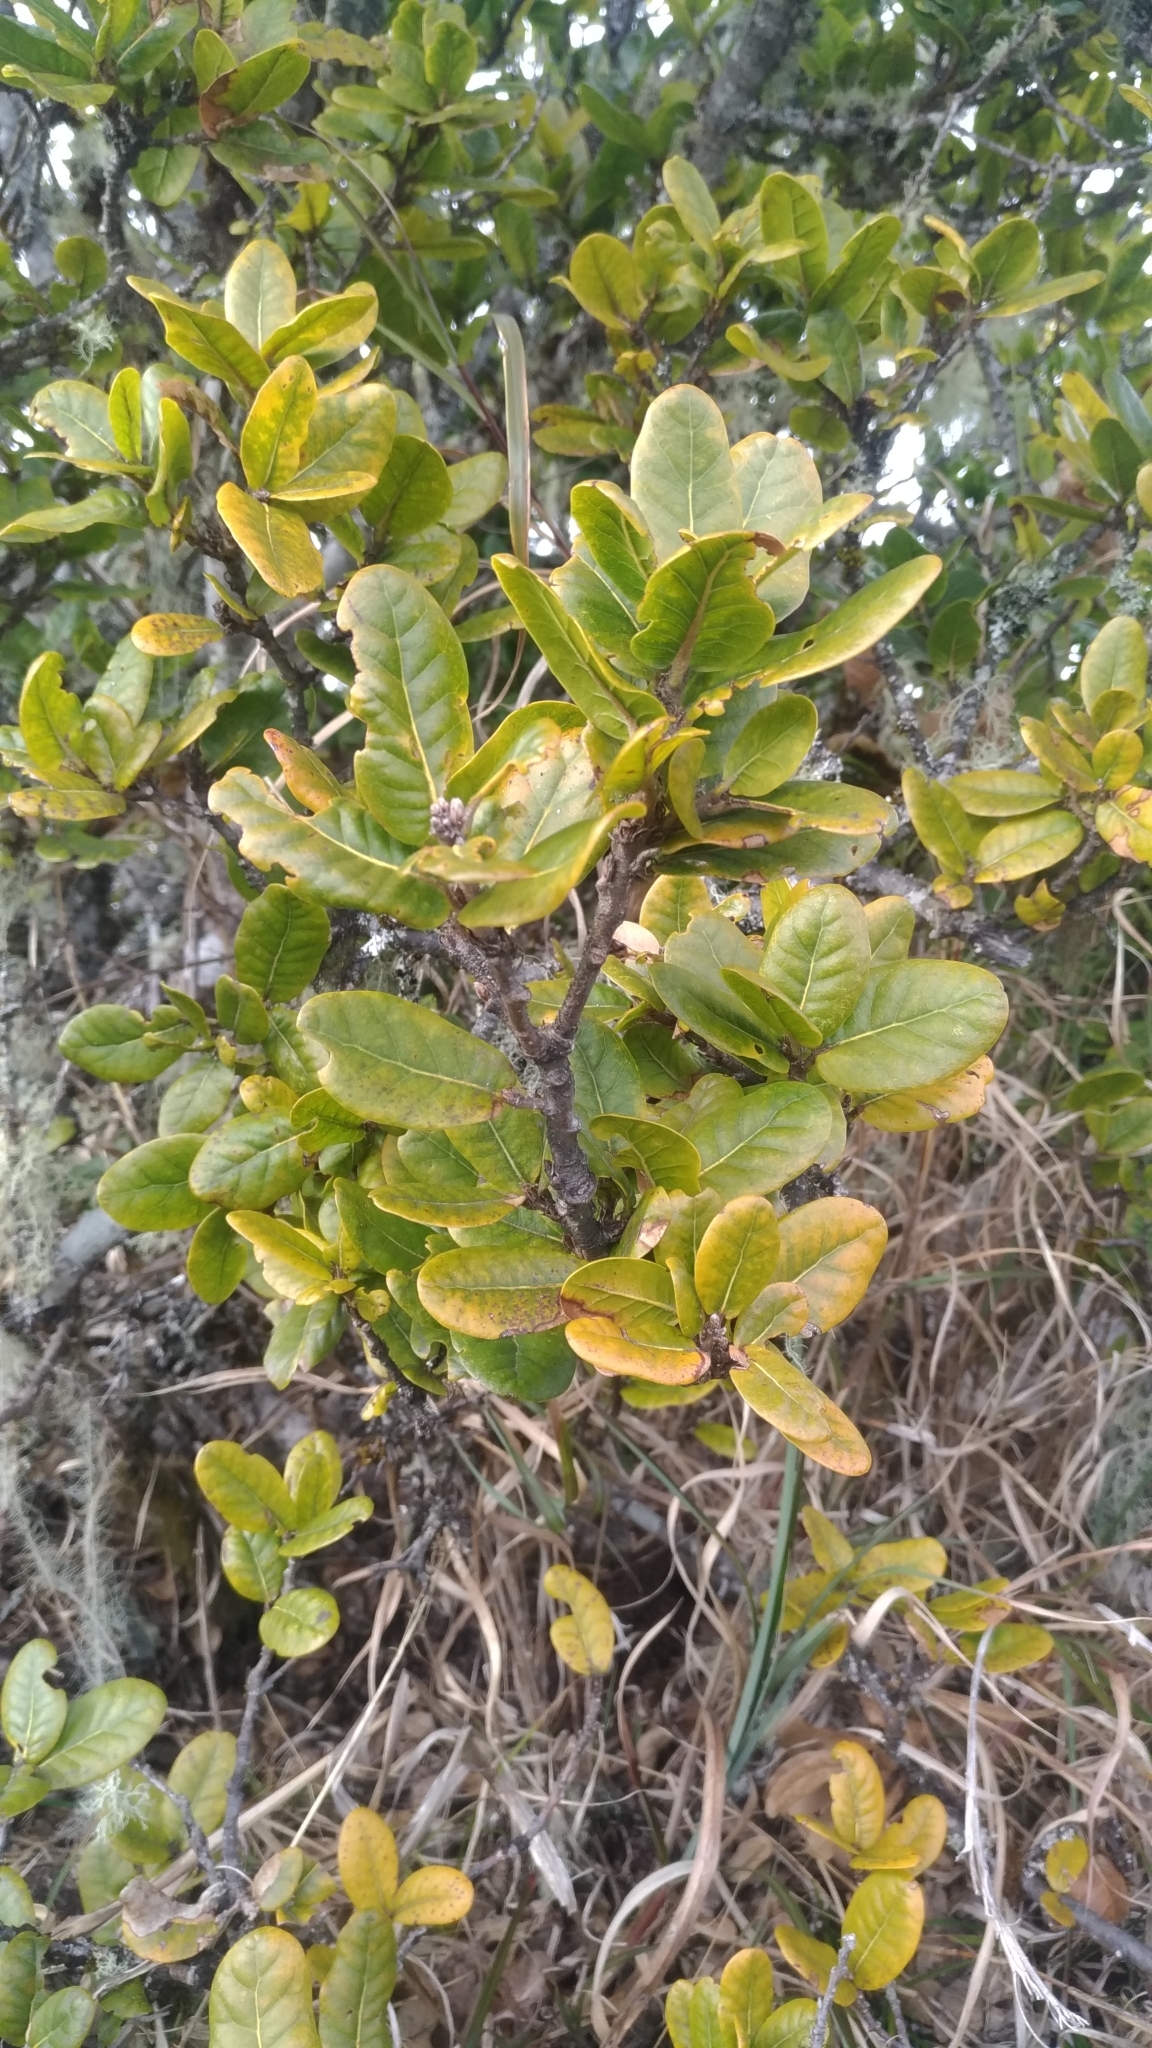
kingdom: Plantae
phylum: Tracheophyta
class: Magnoliopsida
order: Fagales
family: Fagaceae
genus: Quercus
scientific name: Quercus spinosa
